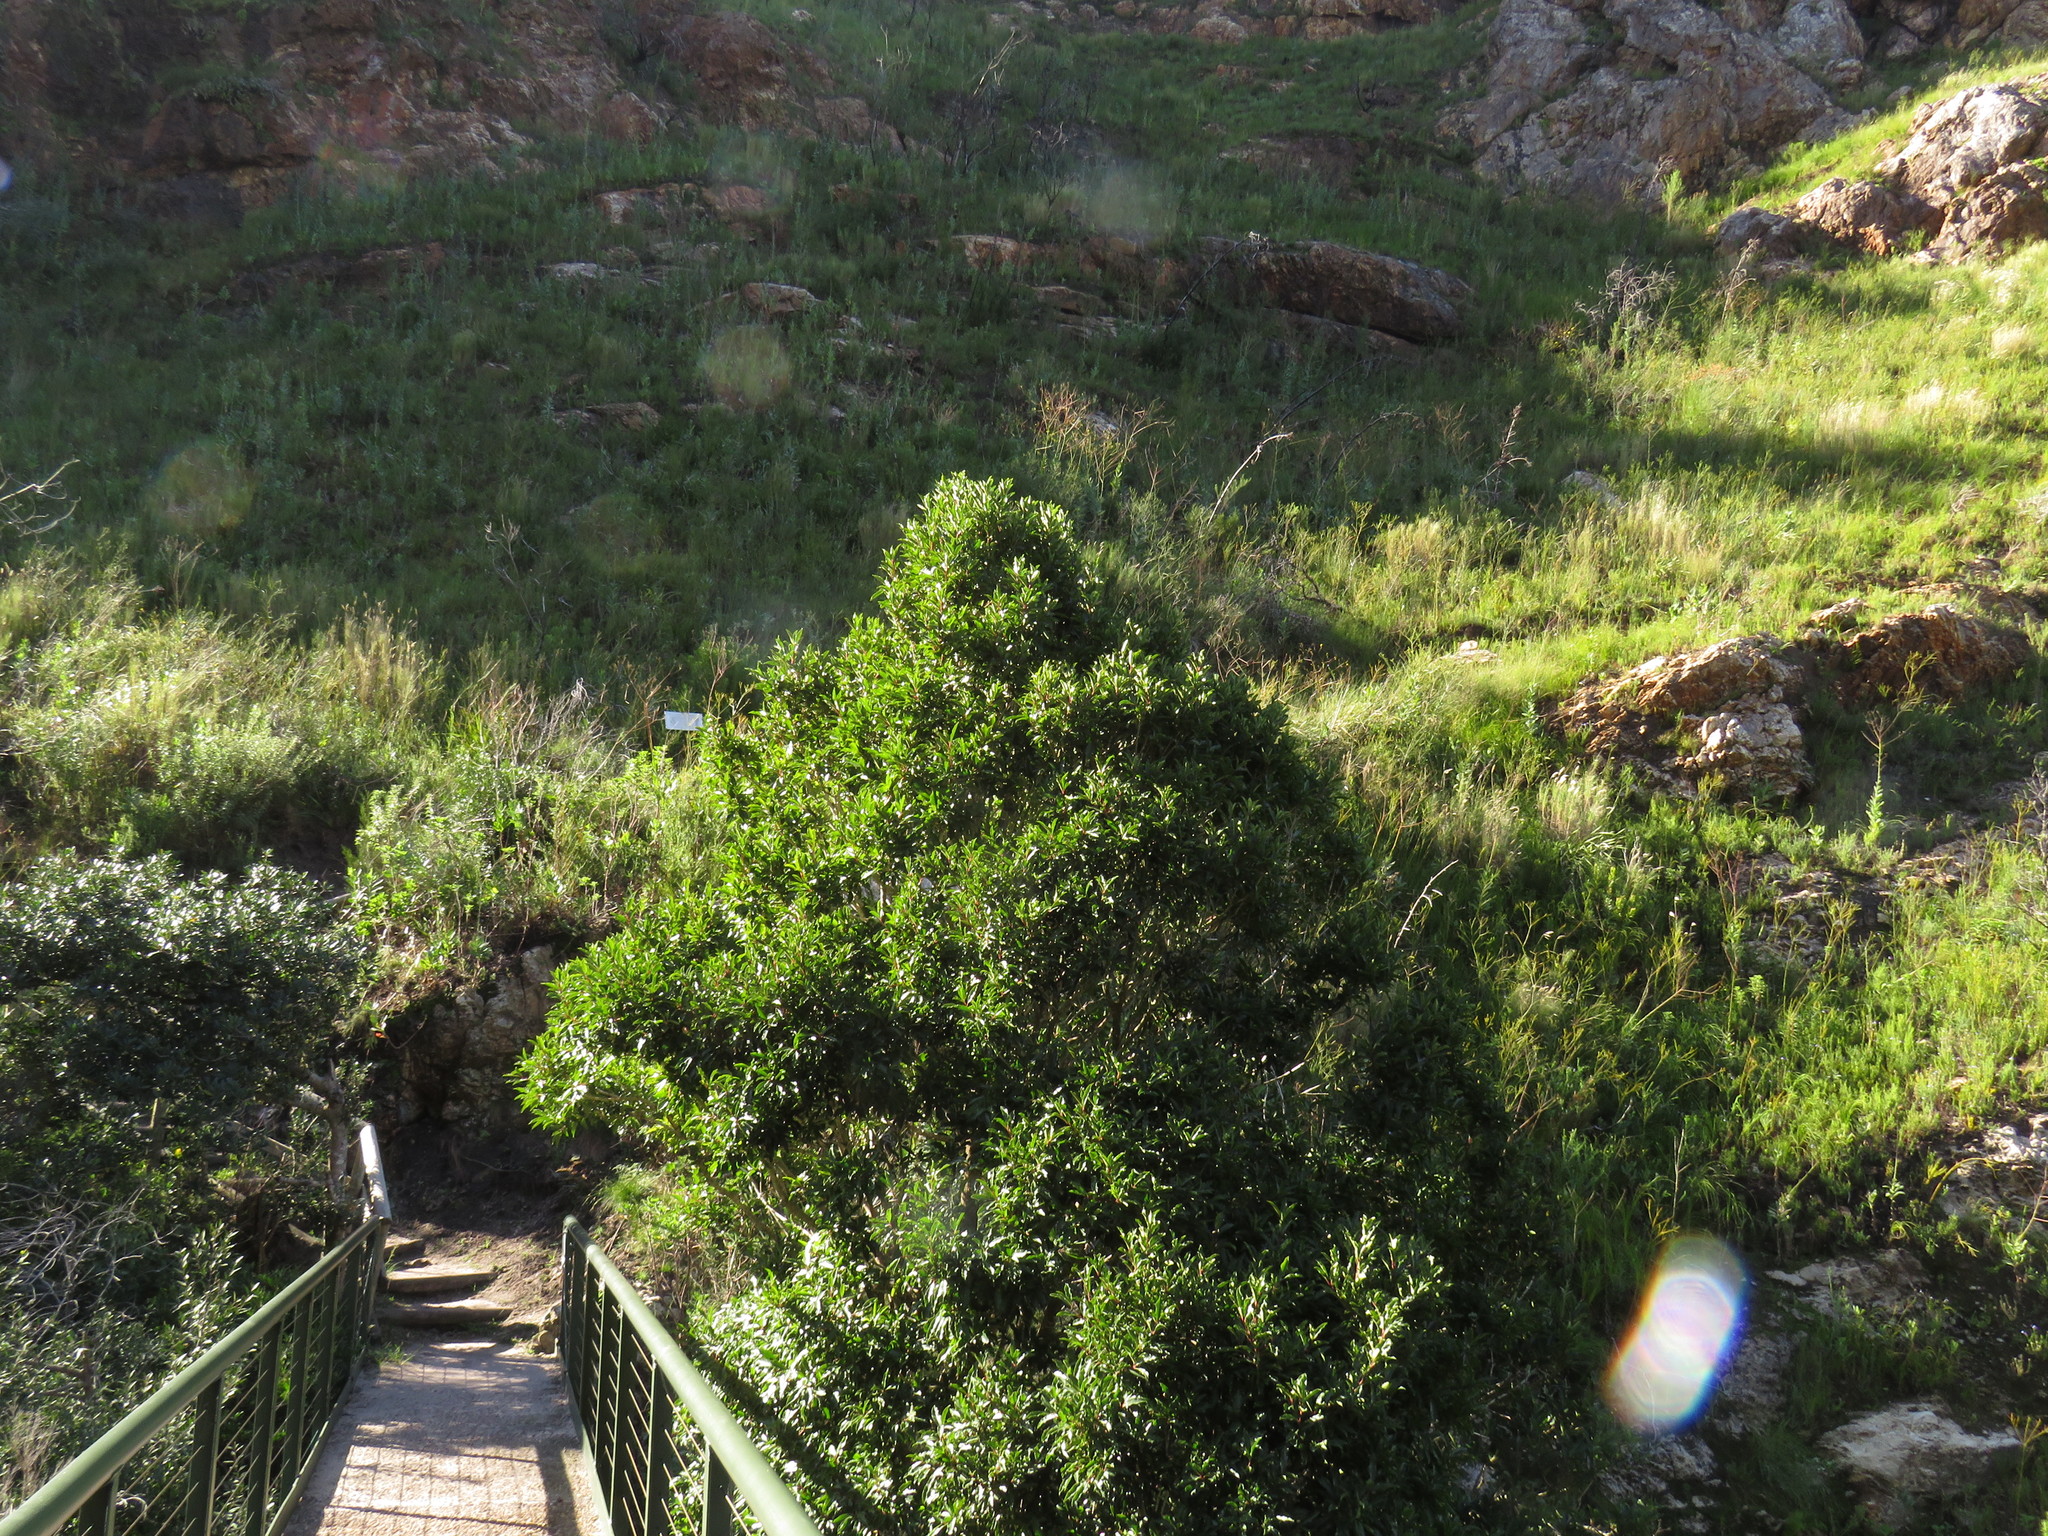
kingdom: Plantae
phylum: Tracheophyta
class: Magnoliopsida
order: Aquifoliales
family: Aquifoliaceae
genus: Ilex
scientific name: Ilex mitis
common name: African holly
